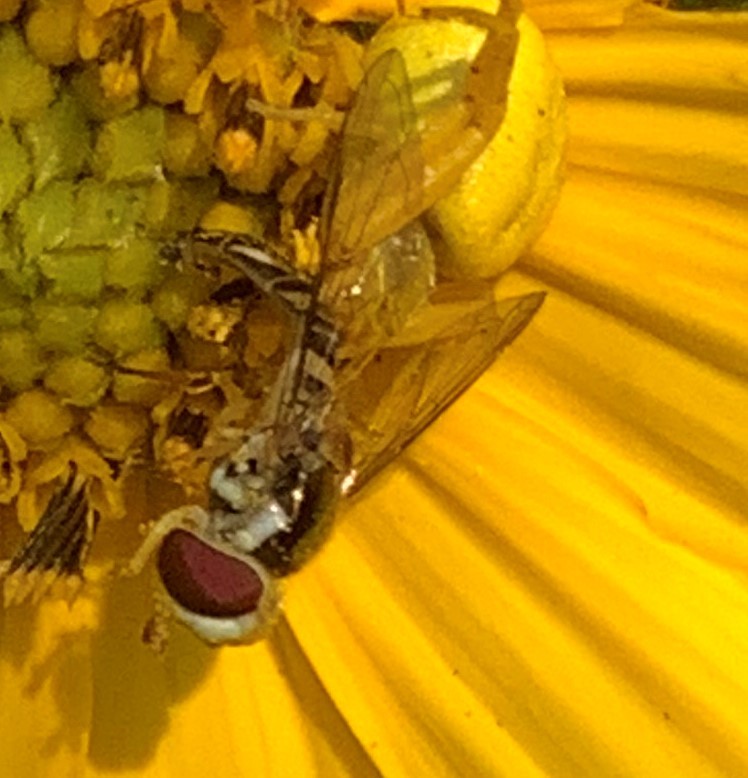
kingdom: Animalia
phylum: Arthropoda
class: Insecta
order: Diptera
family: Syrphidae
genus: Allograpta
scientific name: Allograpta obliqua
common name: Common oblique syrphid
